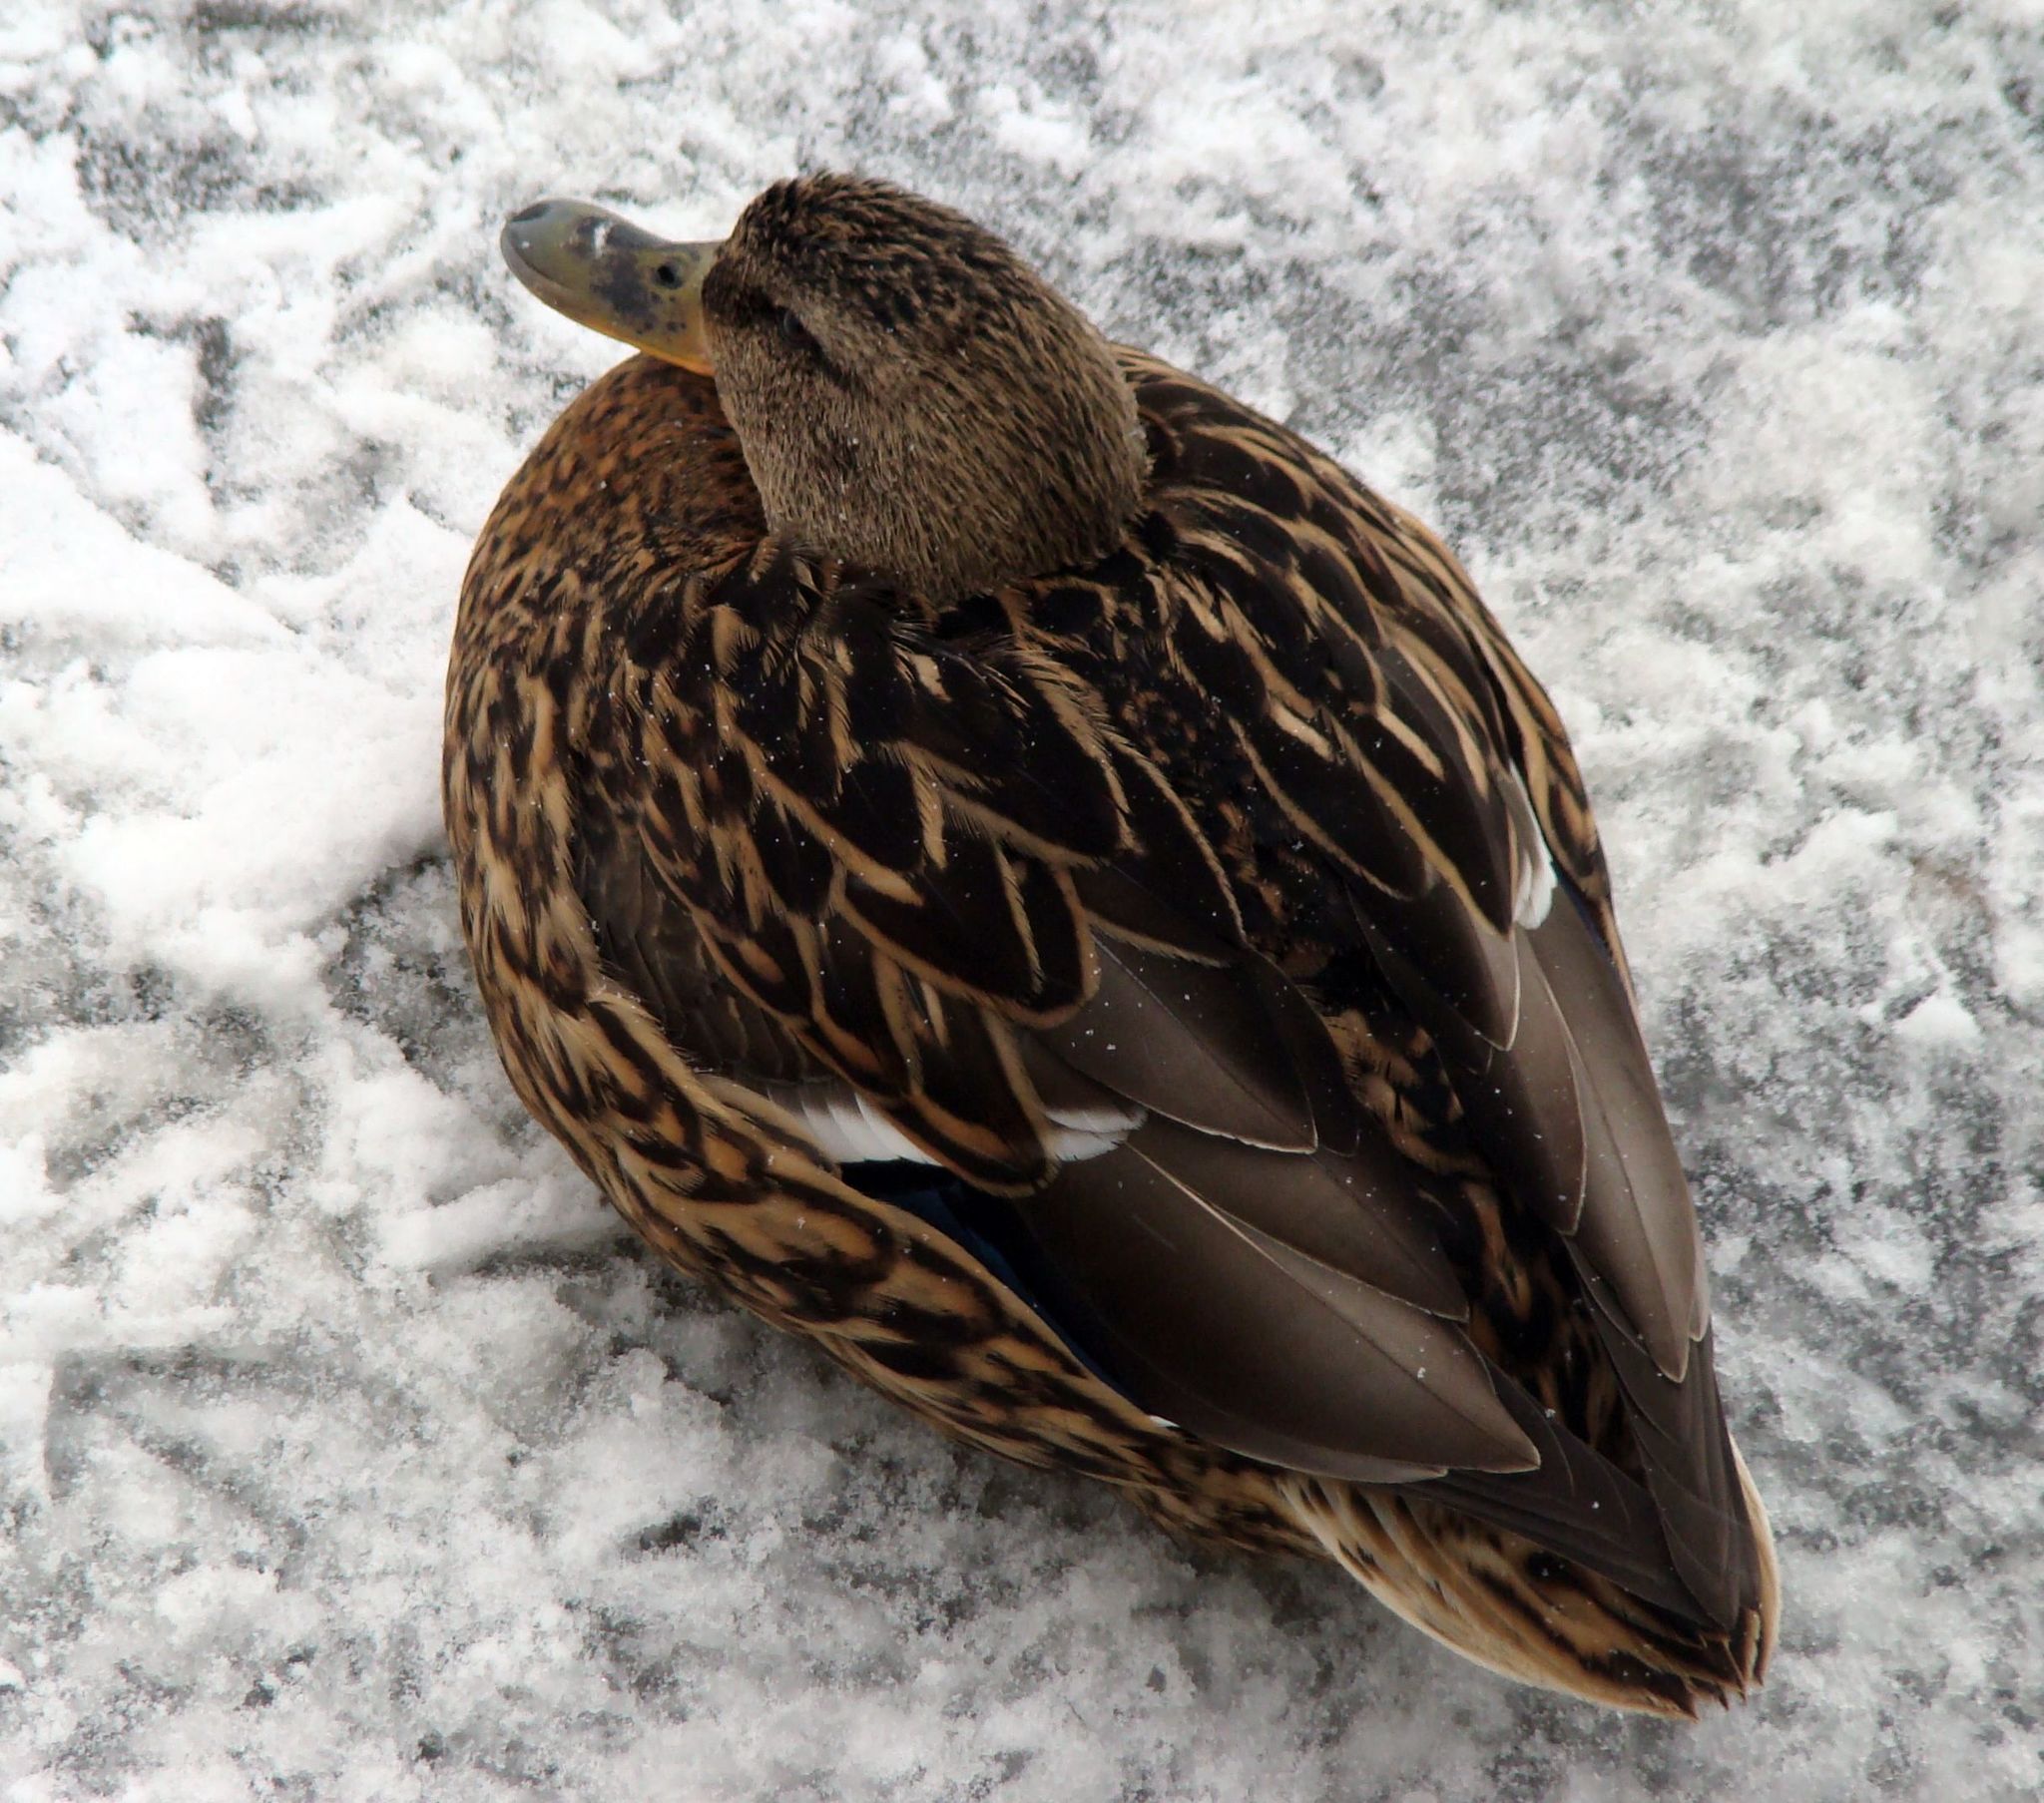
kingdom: Animalia
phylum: Chordata
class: Aves
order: Anseriformes
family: Anatidae
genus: Anas
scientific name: Anas platyrhynchos
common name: Mallard
